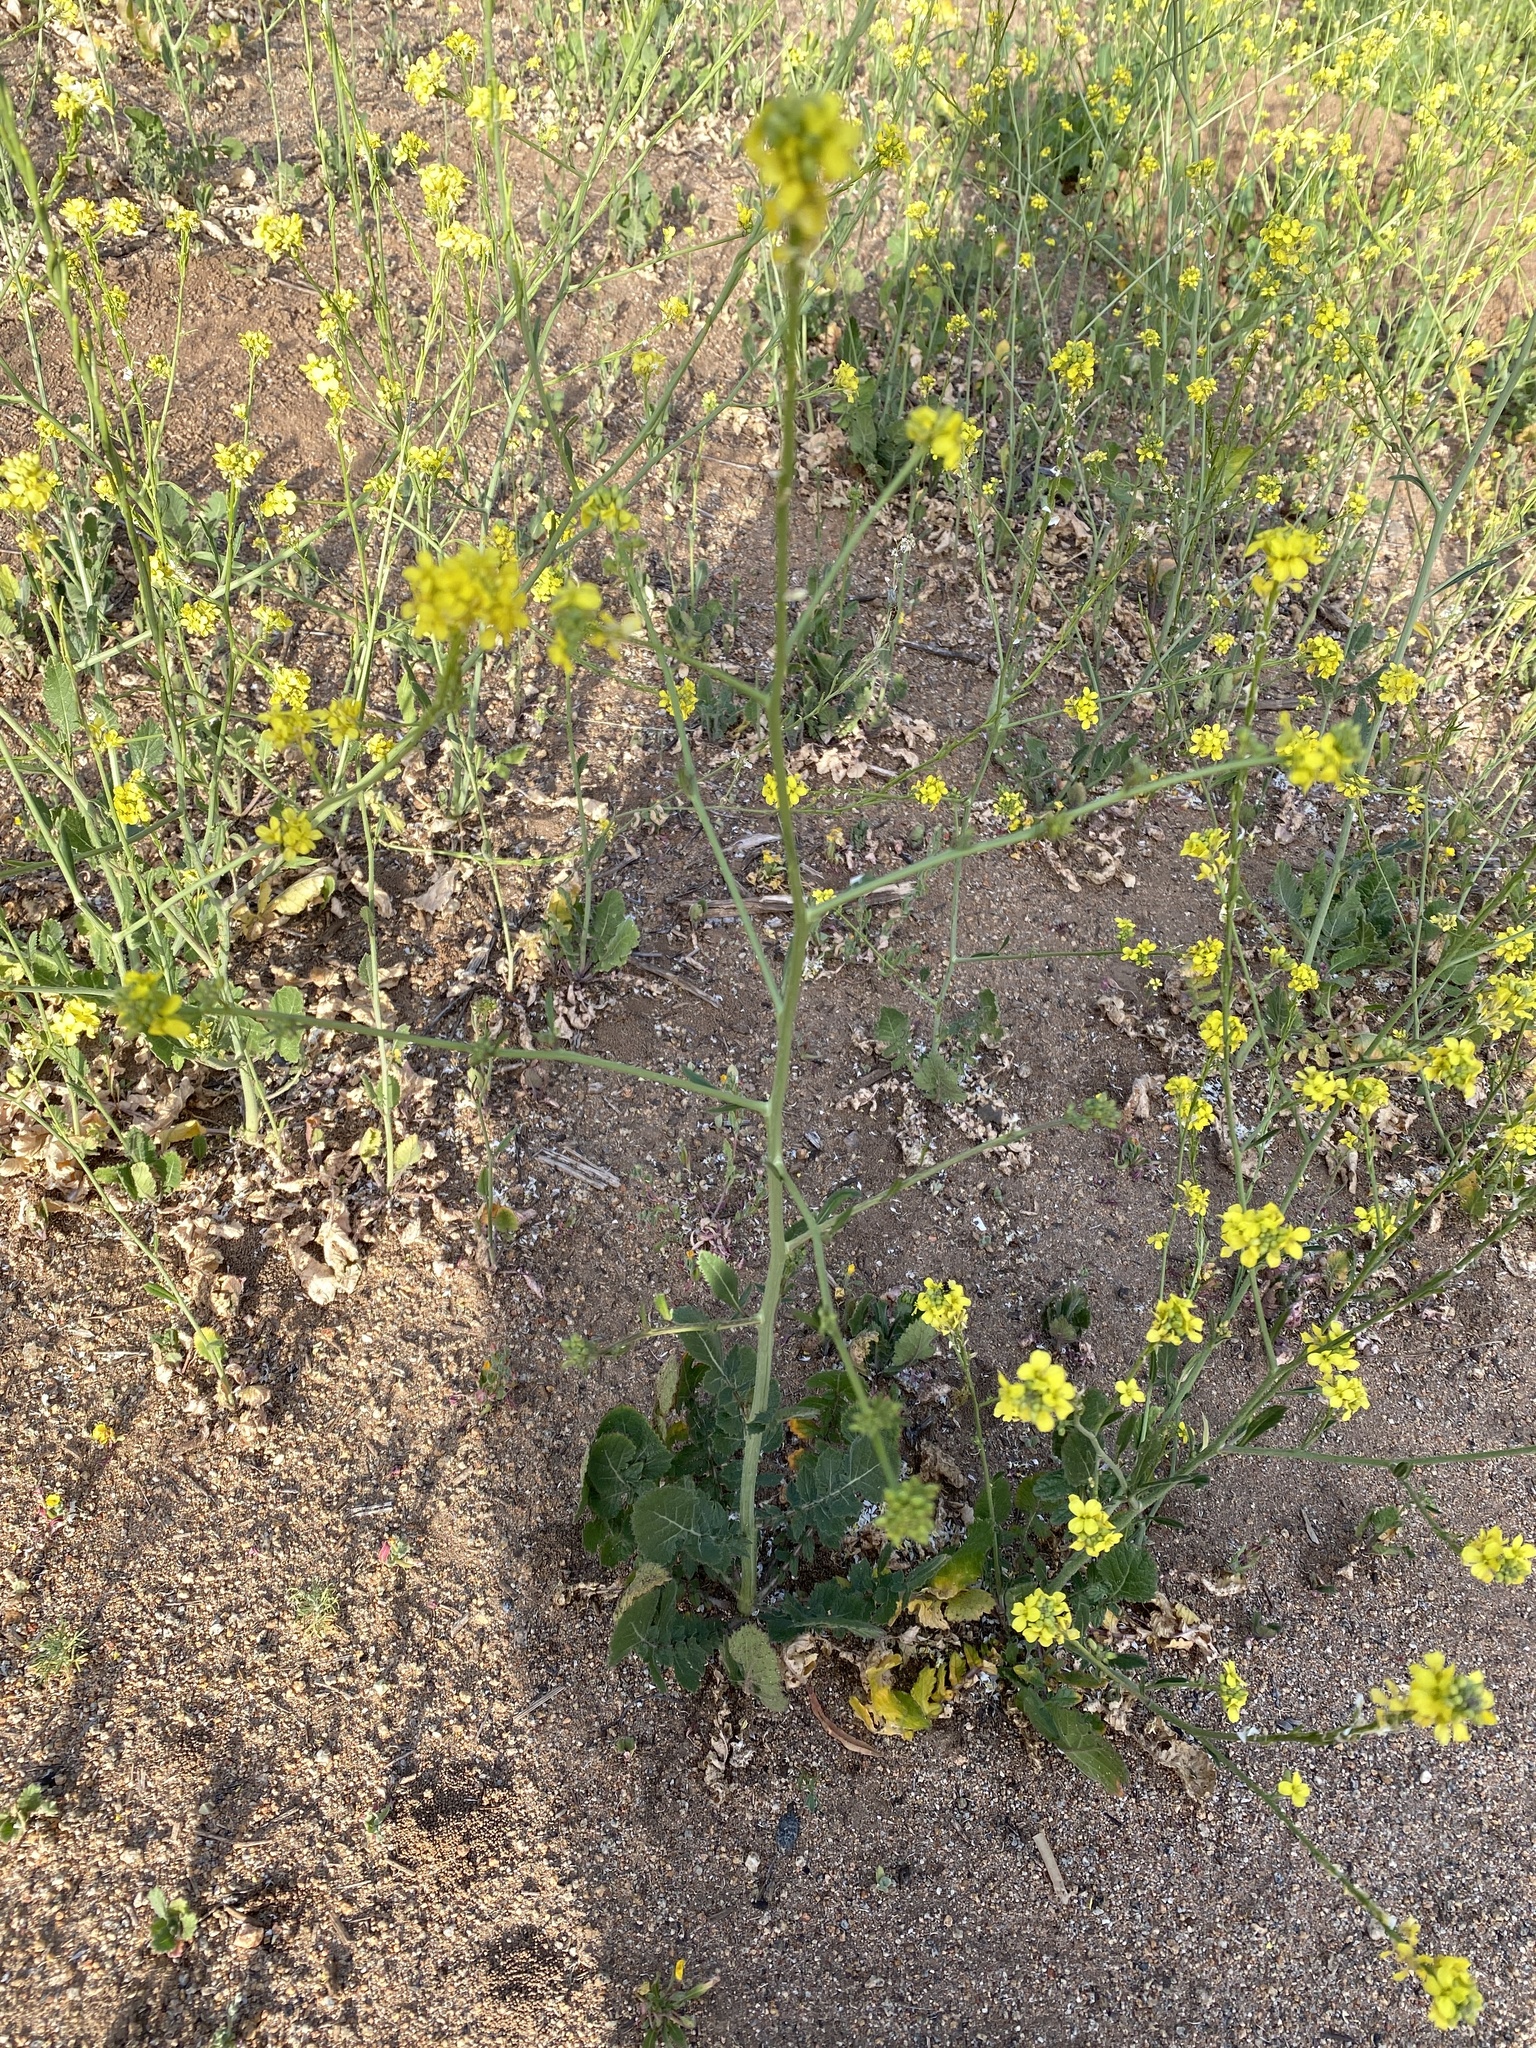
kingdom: Plantae
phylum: Tracheophyta
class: Magnoliopsida
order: Brassicales
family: Brassicaceae
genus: Hirschfeldia
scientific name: Hirschfeldia incana
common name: Hoary mustard
